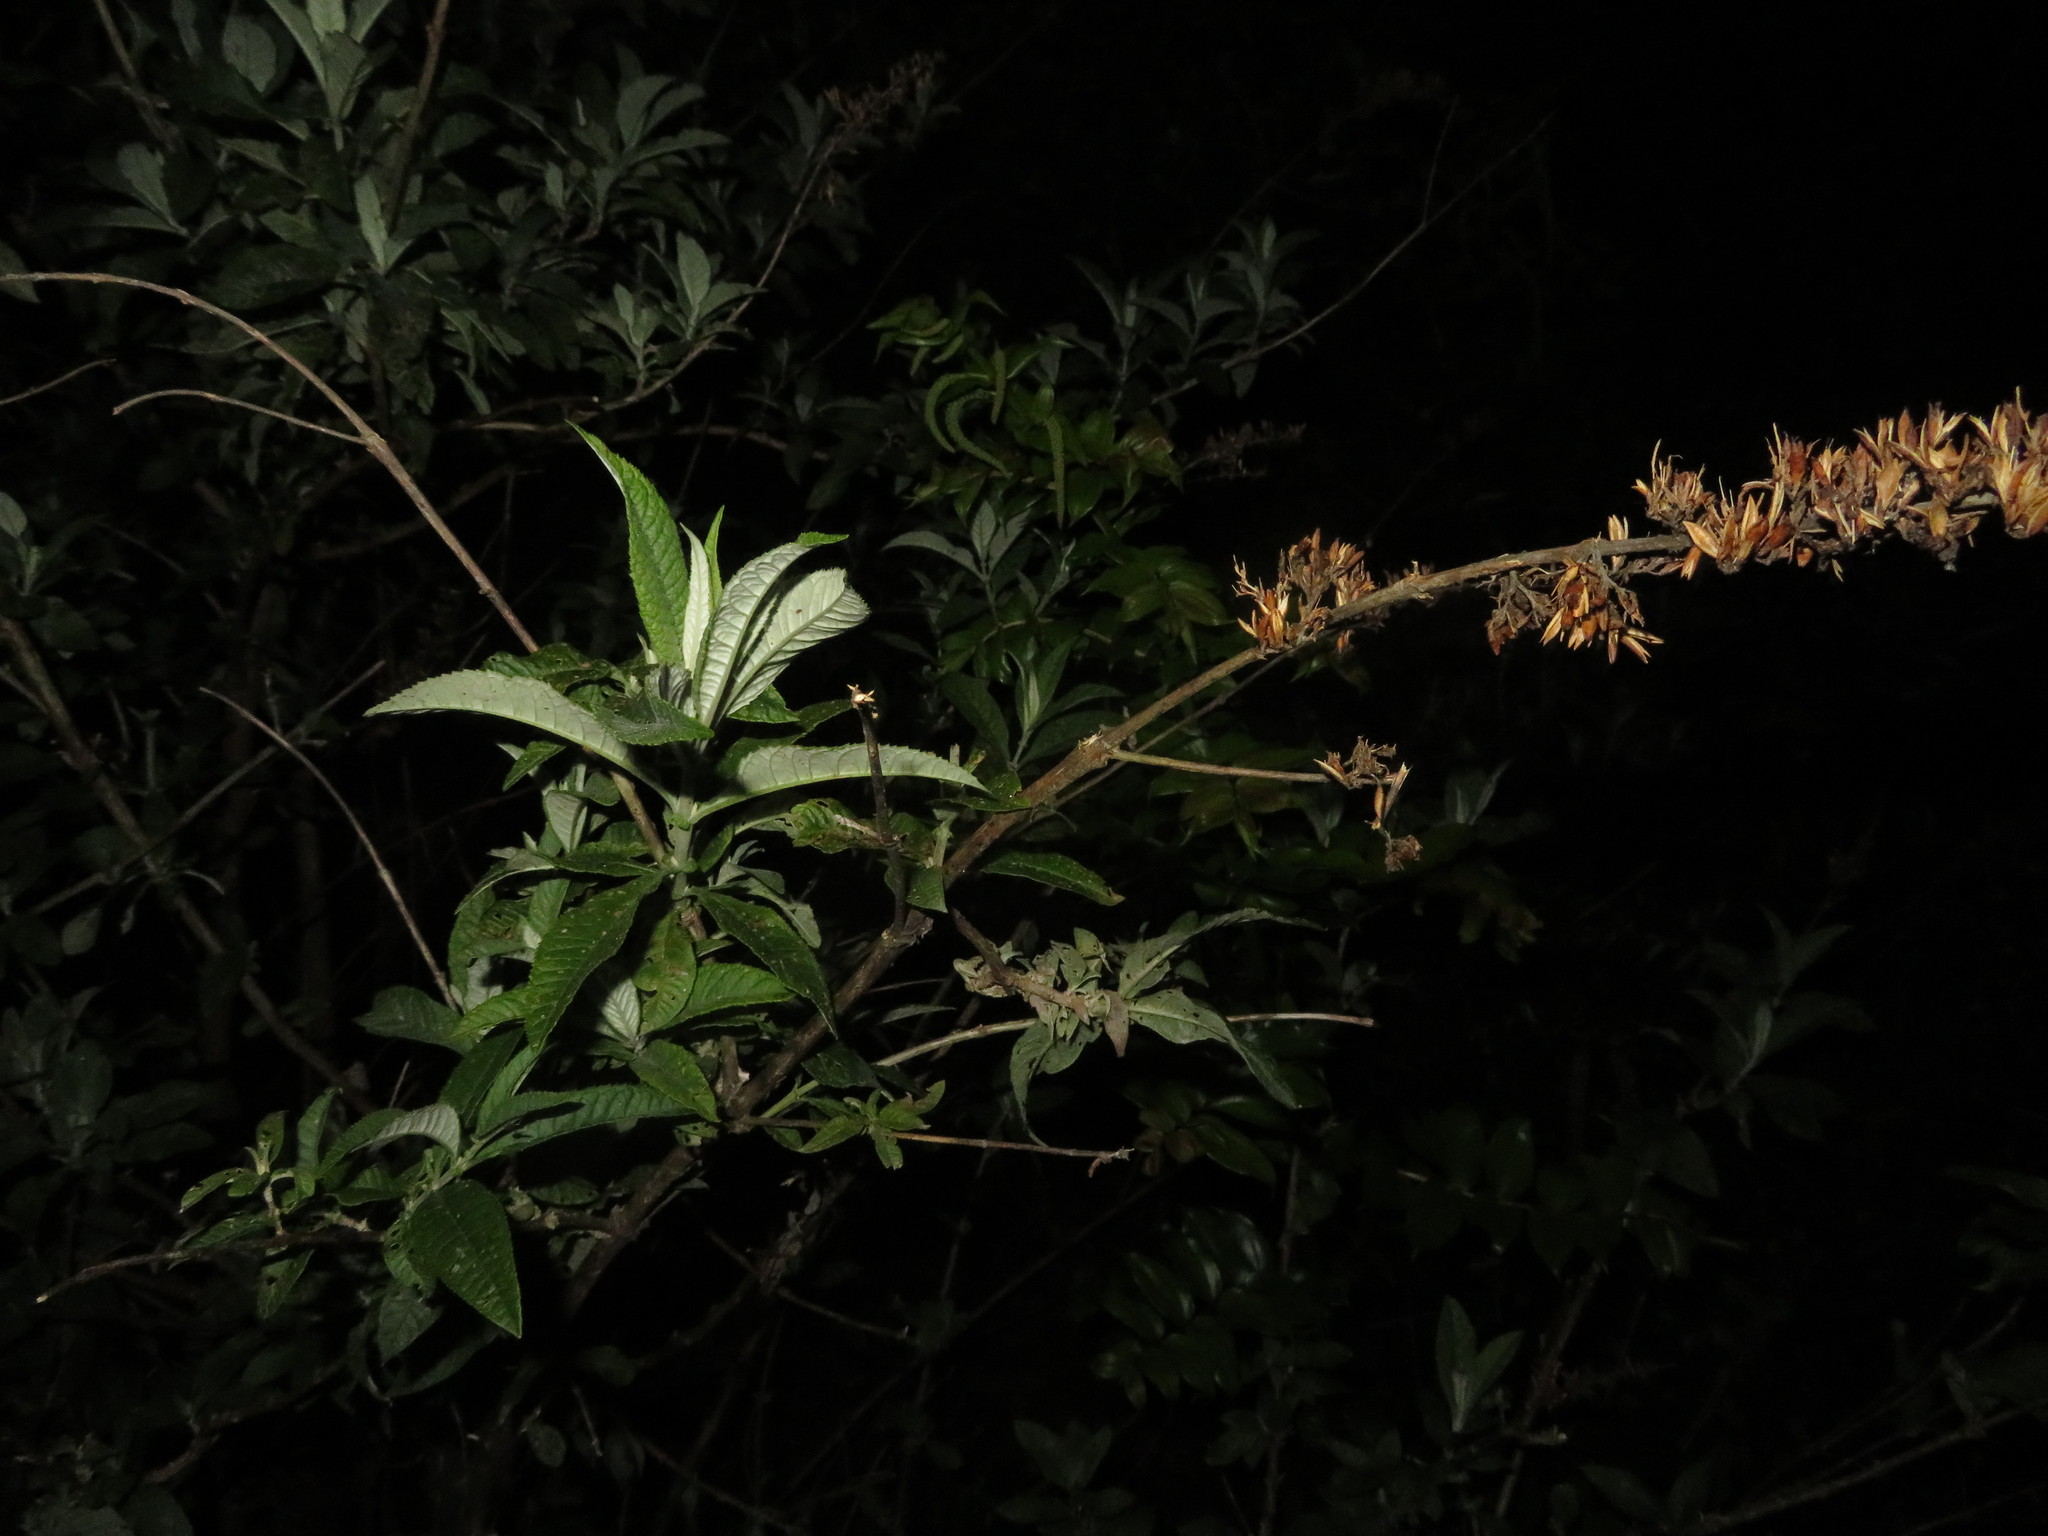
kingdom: Plantae
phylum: Tracheophyta
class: Magnoliopsida
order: Lamiales
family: Scrophulariaceae
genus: Buddleja
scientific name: Buddleja davidii
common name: Butterfly-bush
